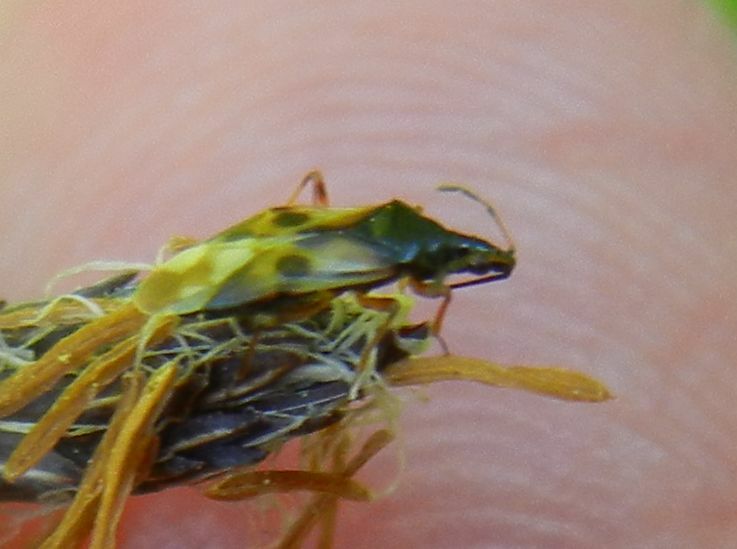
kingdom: Animalia
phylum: Arthropoda
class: Insecta
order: Hemiptera
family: Anthocoridae
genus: Anthocoris
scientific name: Anthocoris nemorum
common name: Minute pirate bug
